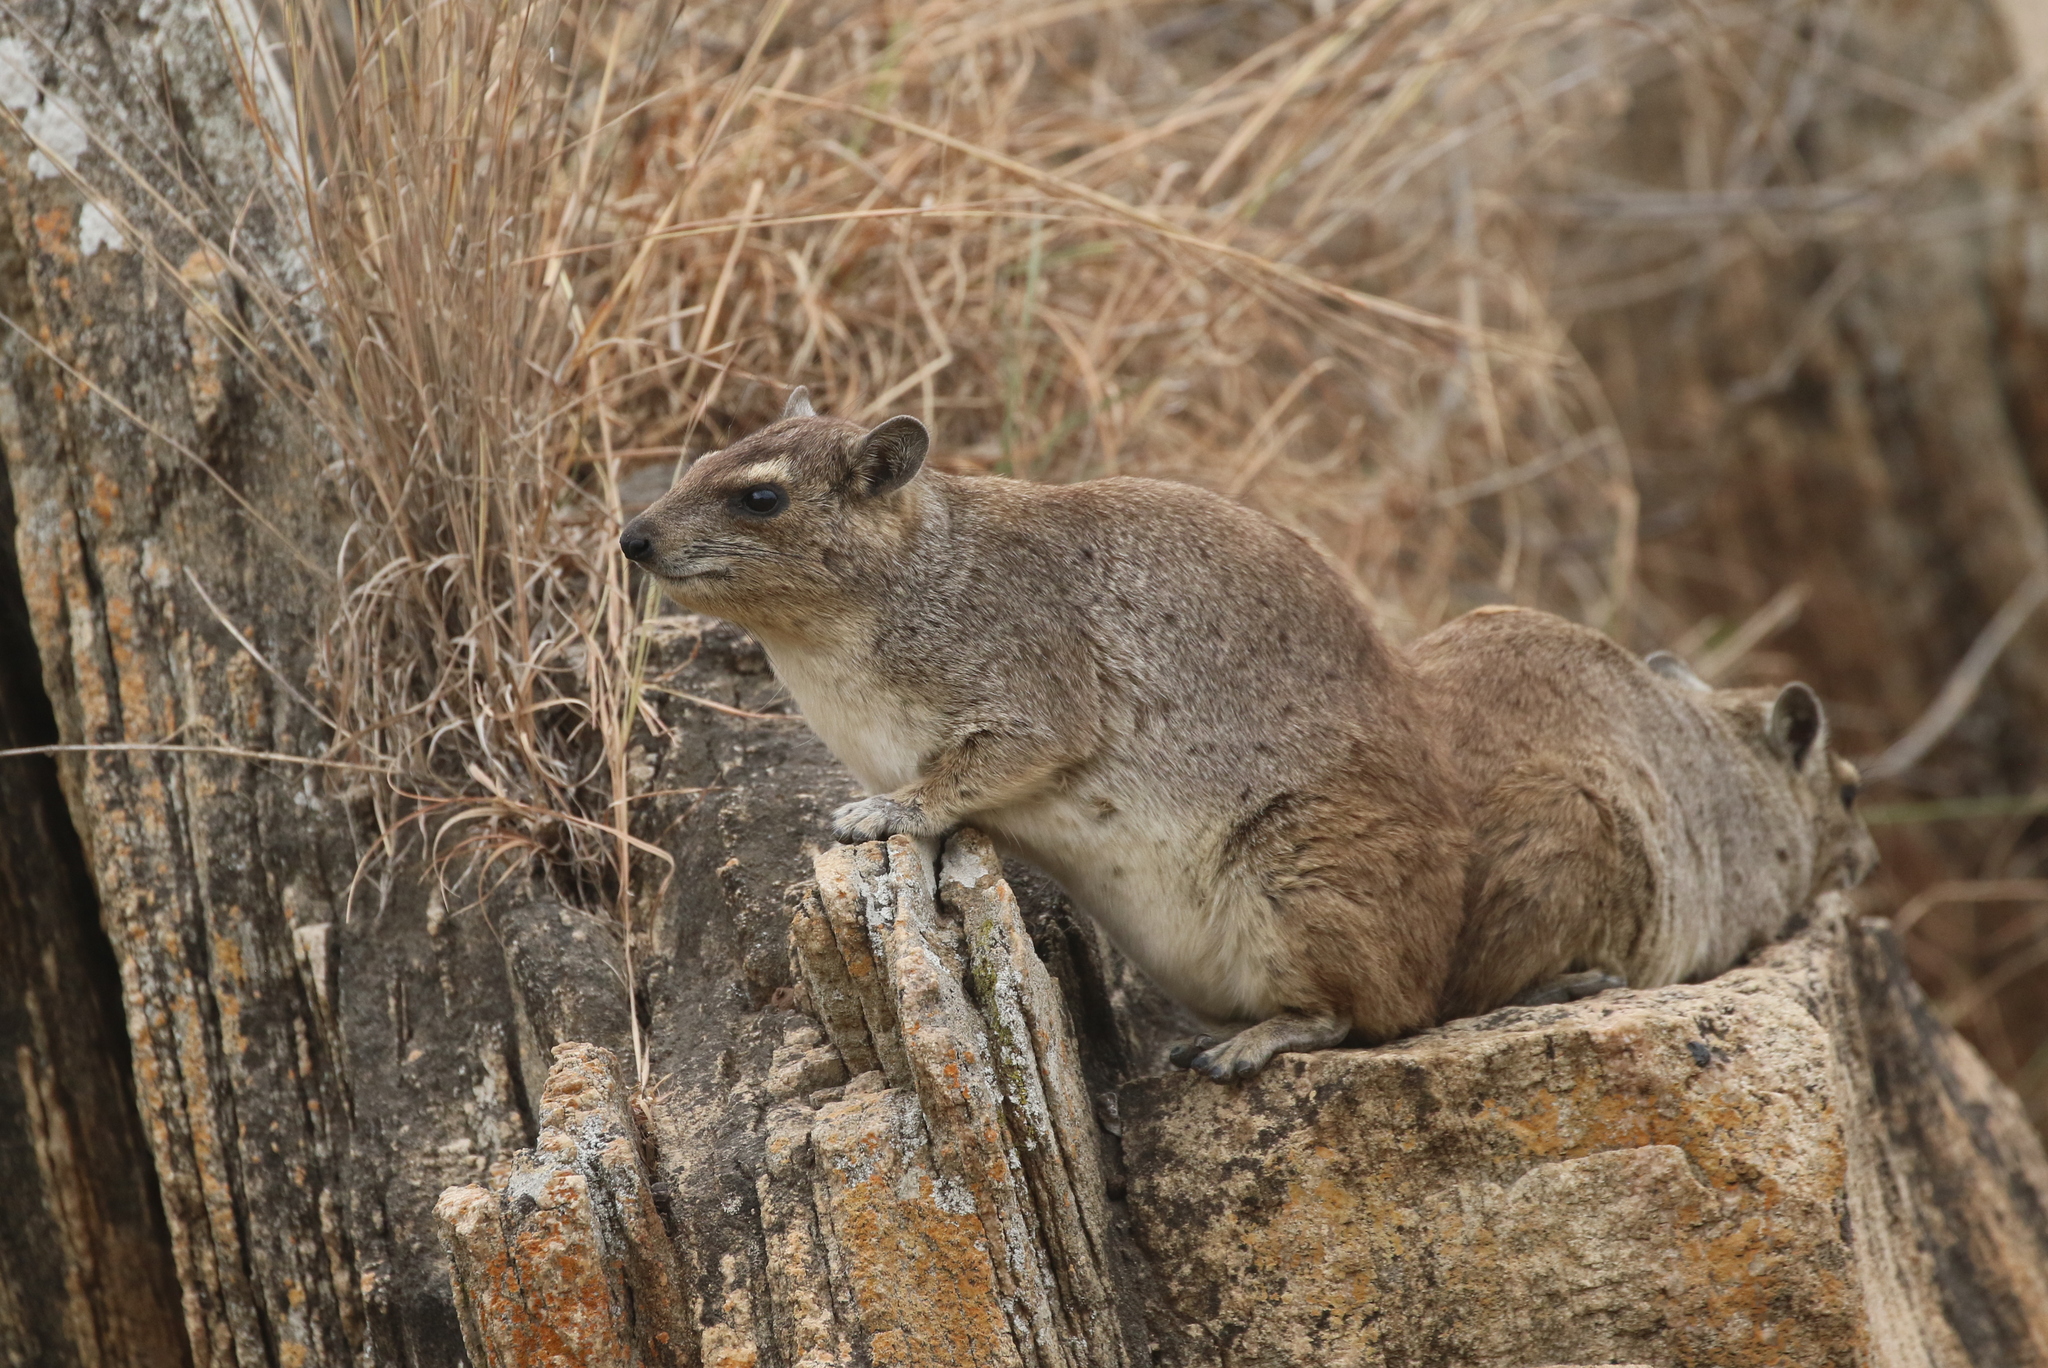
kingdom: Animalia
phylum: Chordata
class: Mammalia
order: Hyracoidea
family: Procaviidae
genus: Heterohyrax
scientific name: Heterohyrax brucei
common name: Bush hyrax
